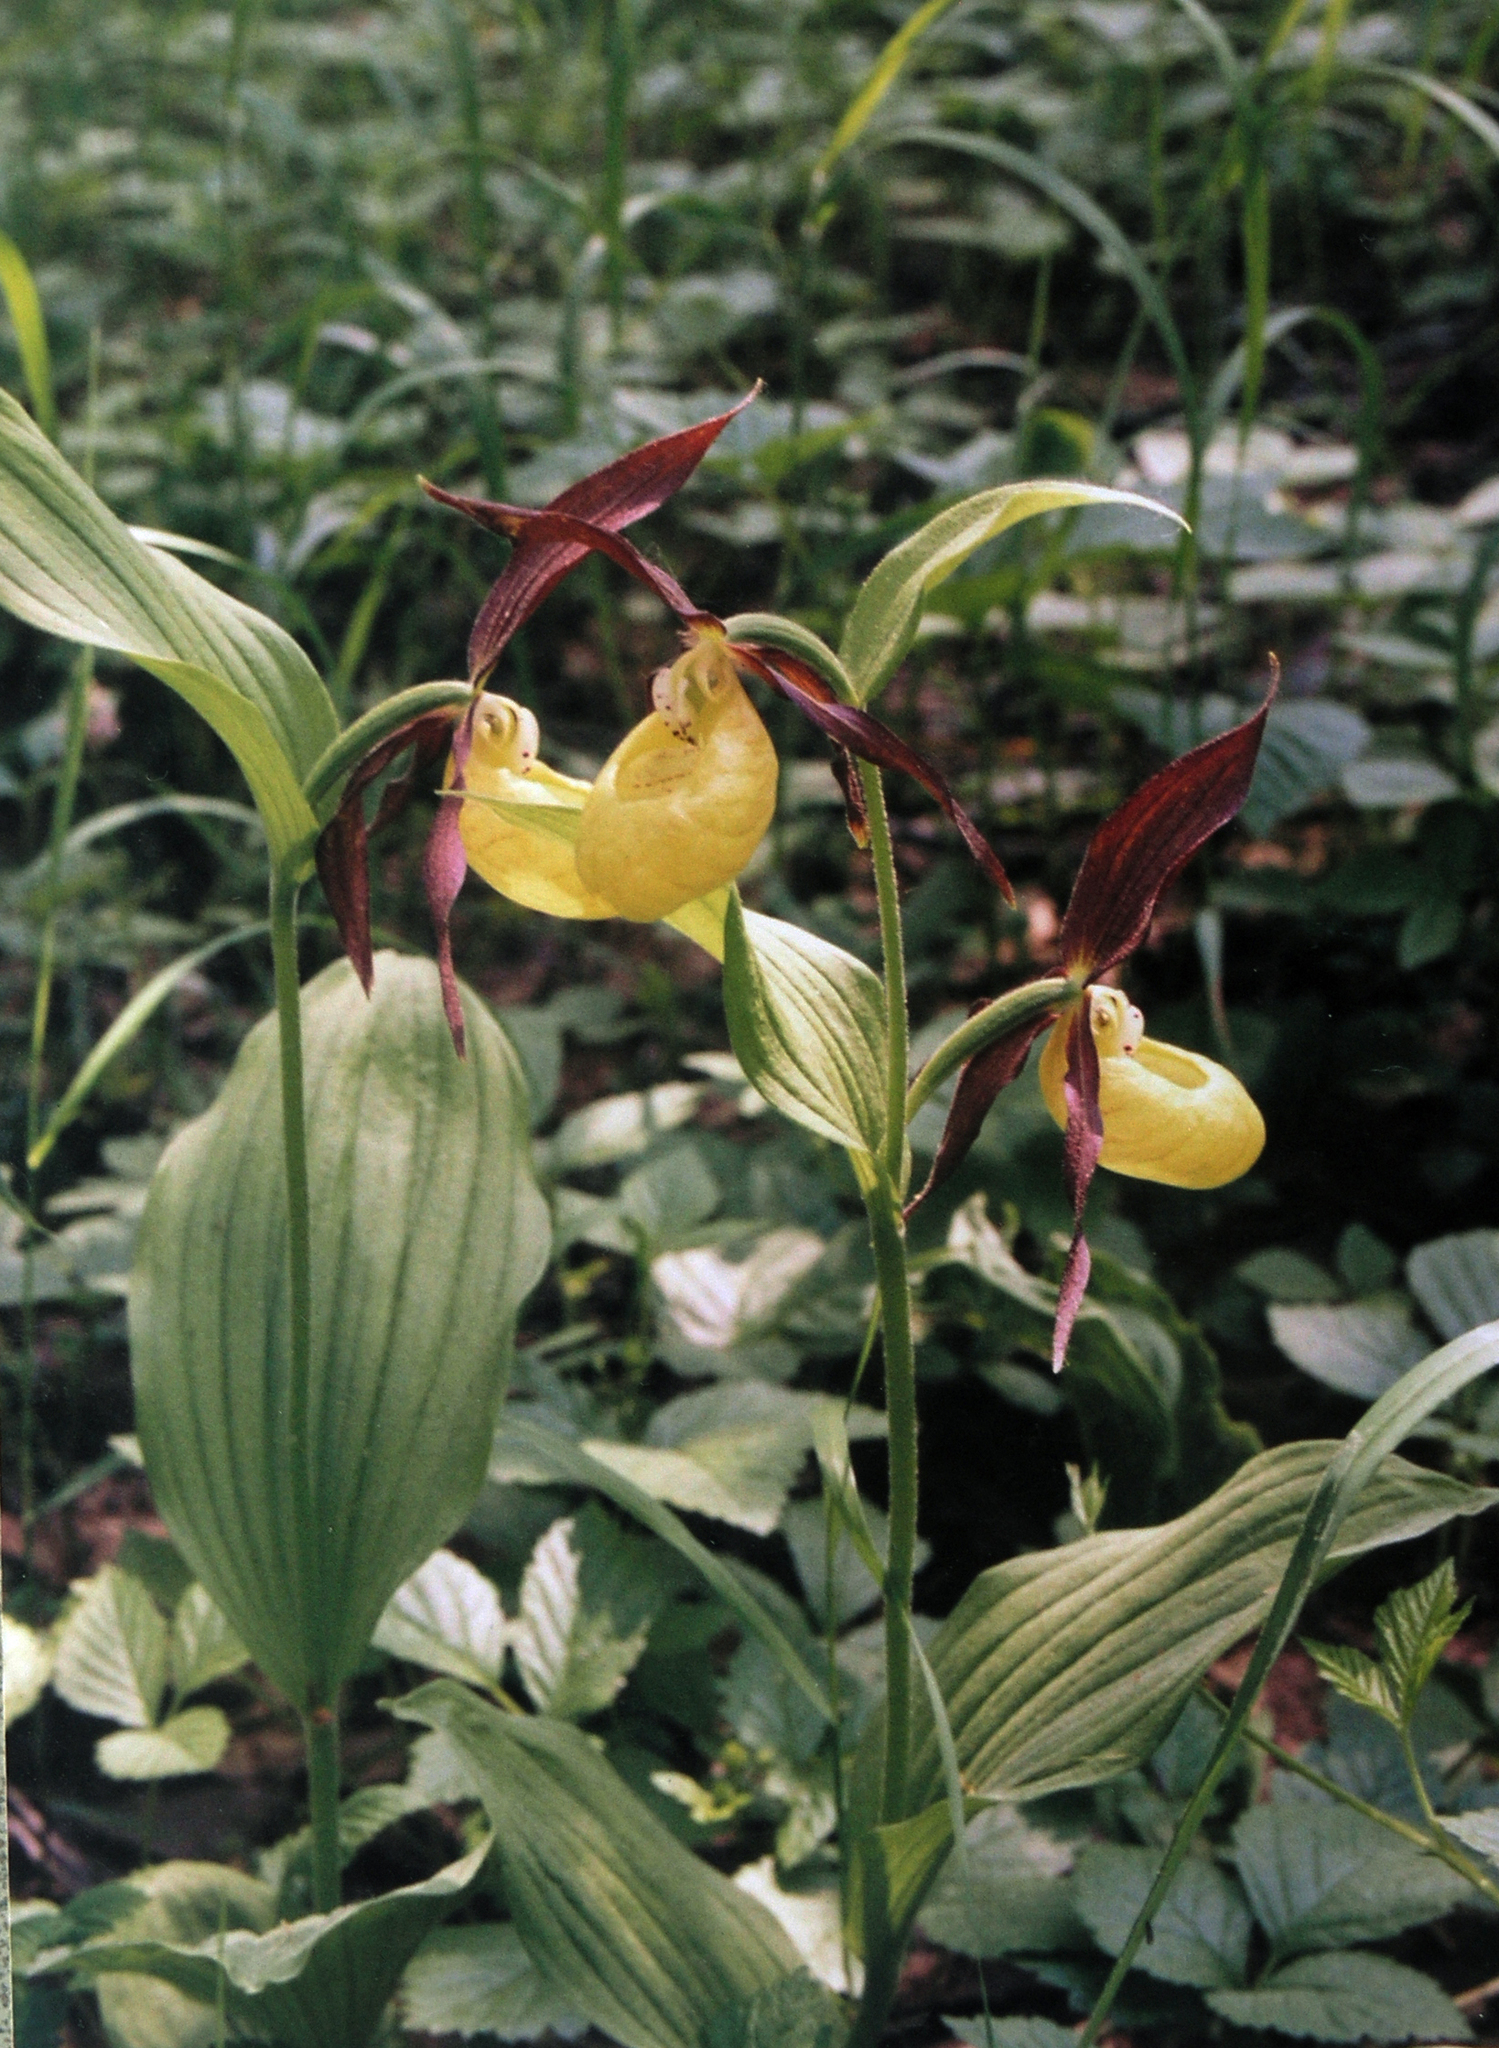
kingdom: Plantae
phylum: Tracheophyta
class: Liliopsida
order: Asparagales
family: Orchidaceae
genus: Cypripedium
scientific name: Cypripedium calceolus
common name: Lady's-slipper
